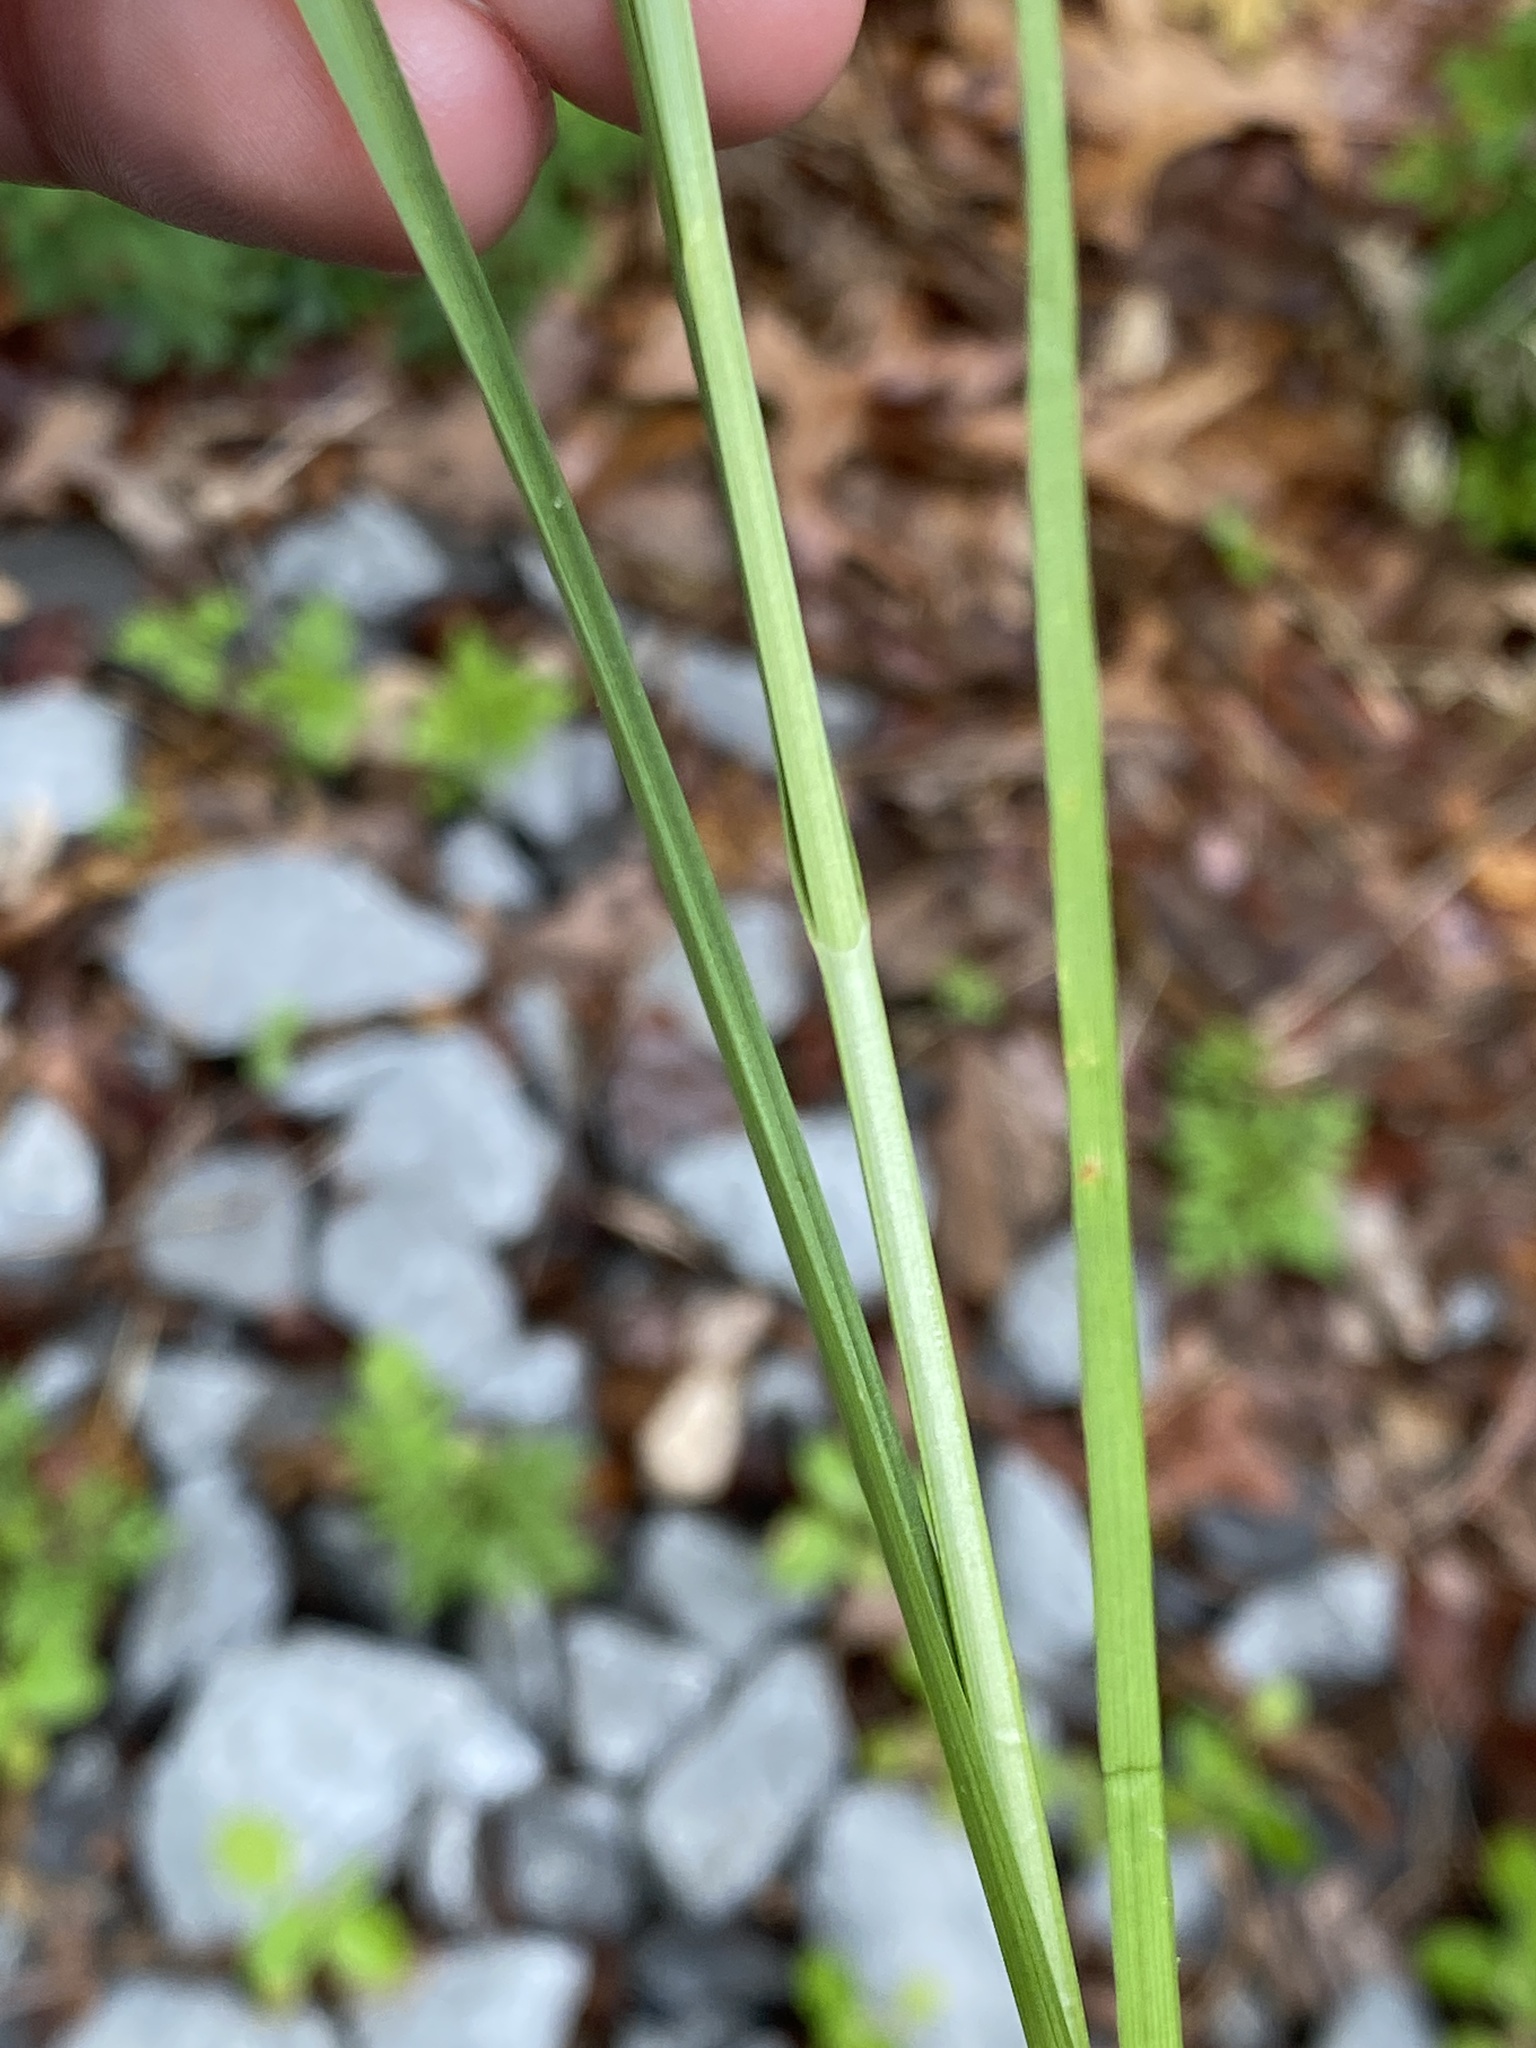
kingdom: Plantae
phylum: Tracheophyta
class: Liliopsida
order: Poales
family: Cyperaceae
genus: Carex
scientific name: Carex muehlenbergii
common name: Muhlenberg's bracted sedge
